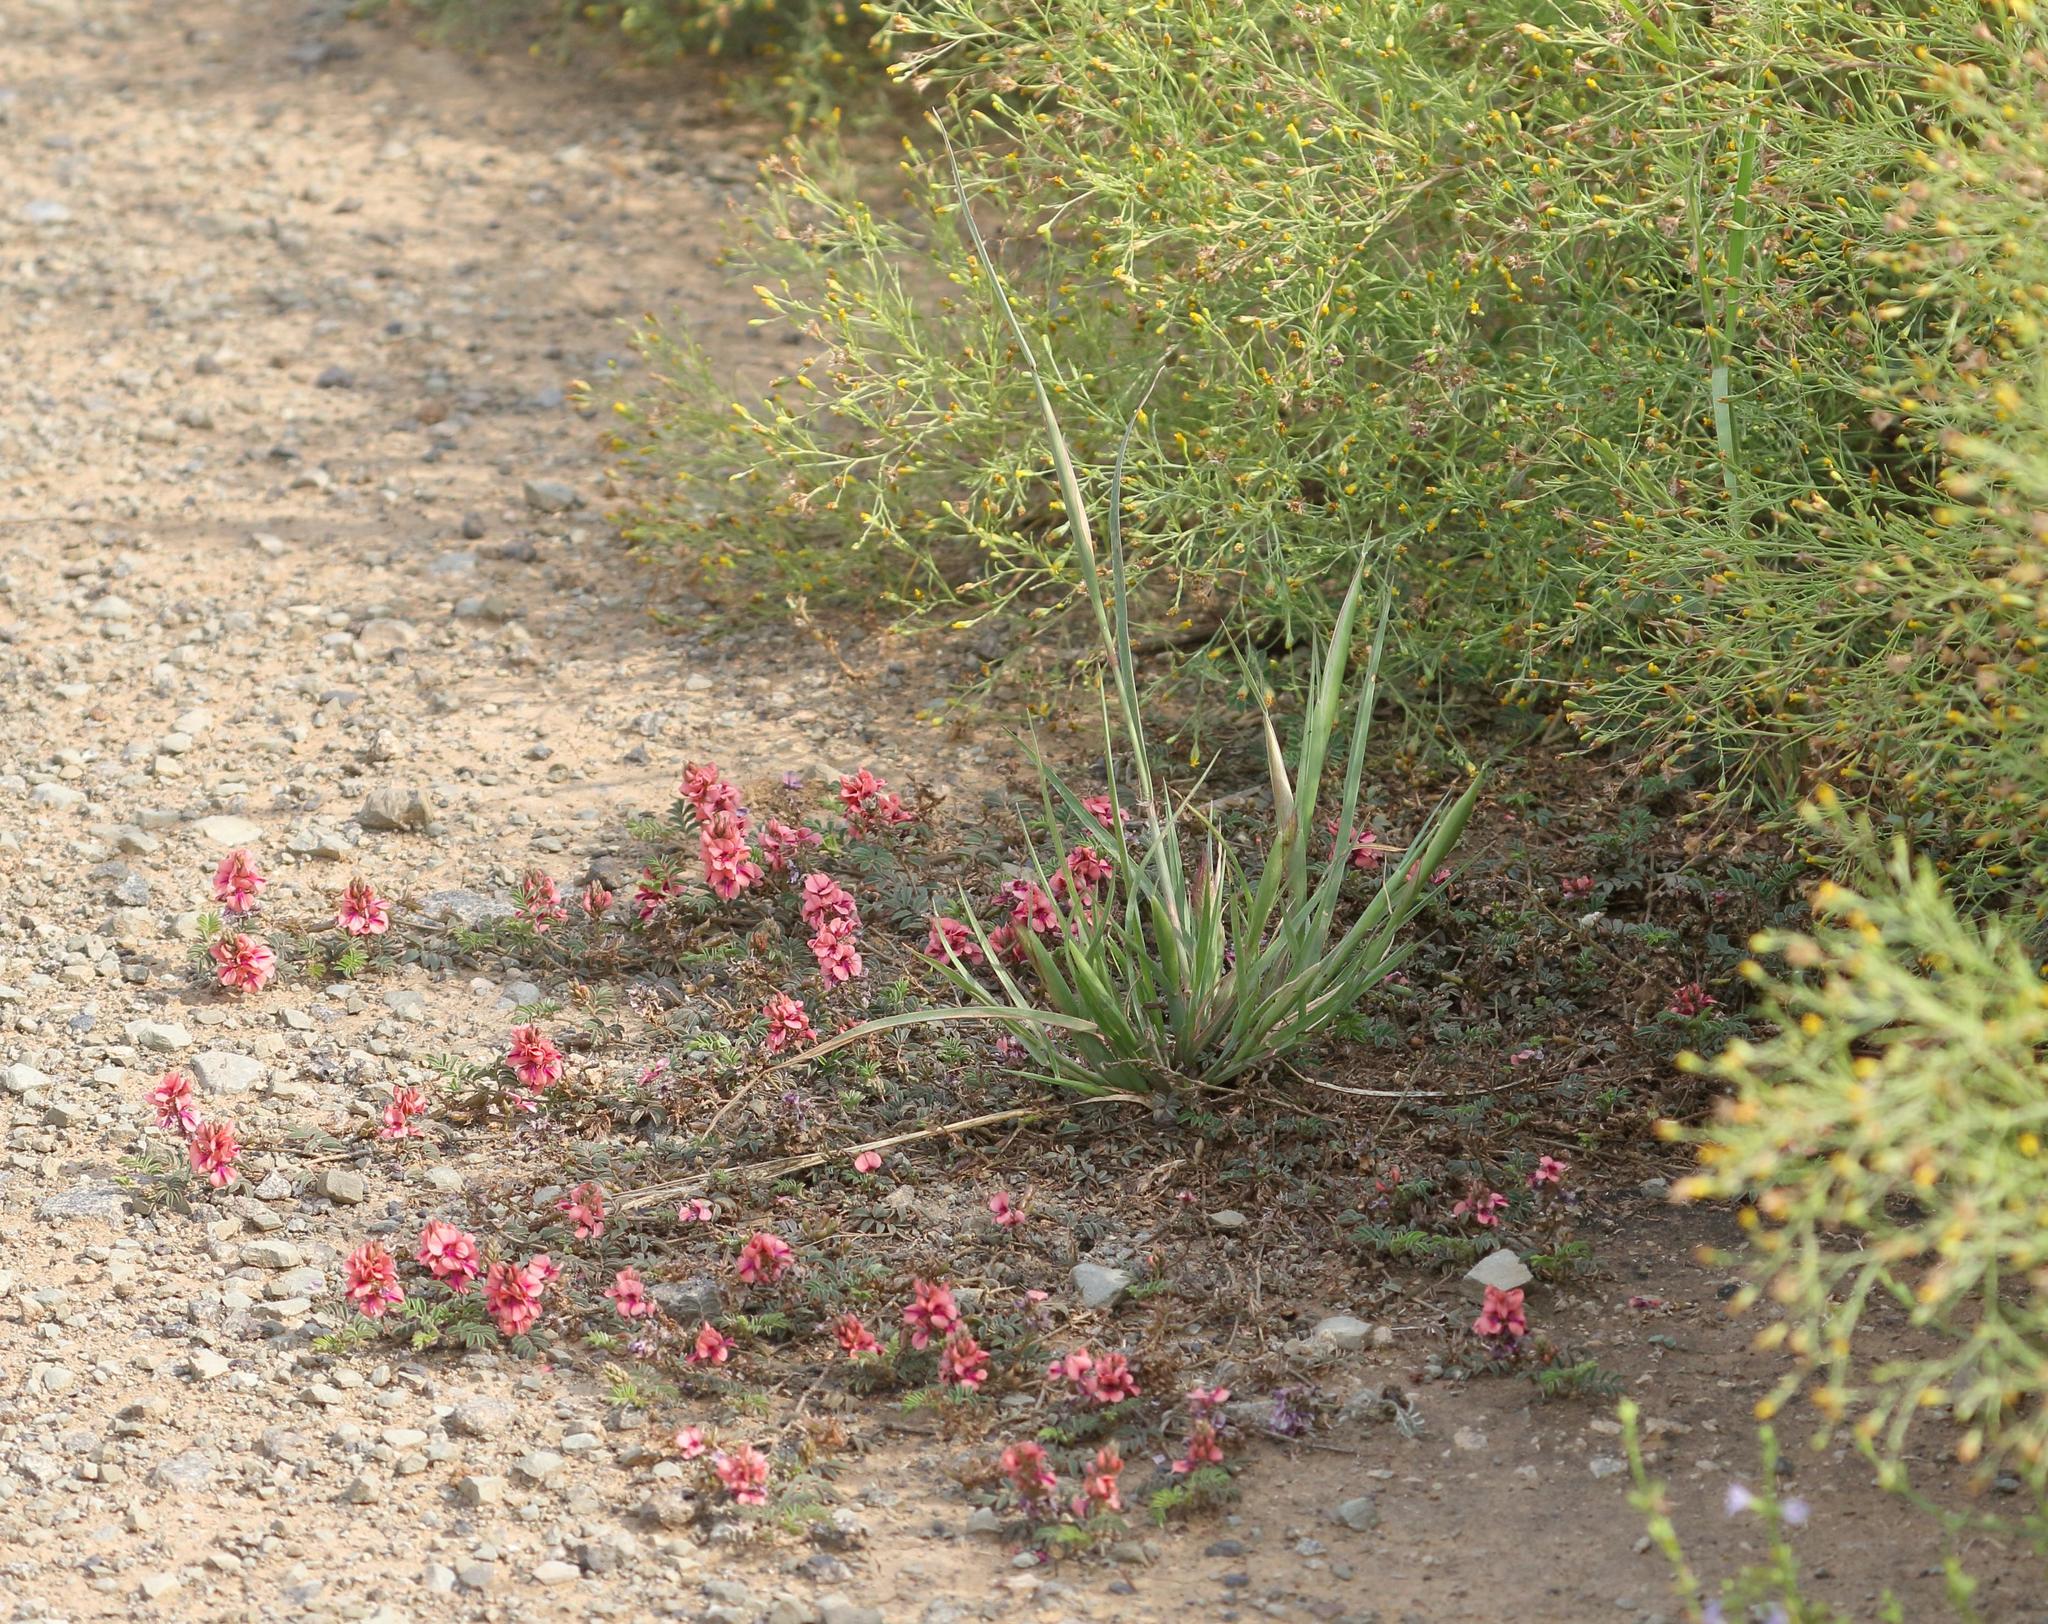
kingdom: Plantae
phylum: Tracheophyta
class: Magnoliopsida
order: Fabales
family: Fabaceae
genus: Indigofera
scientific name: Indigofera alternans
